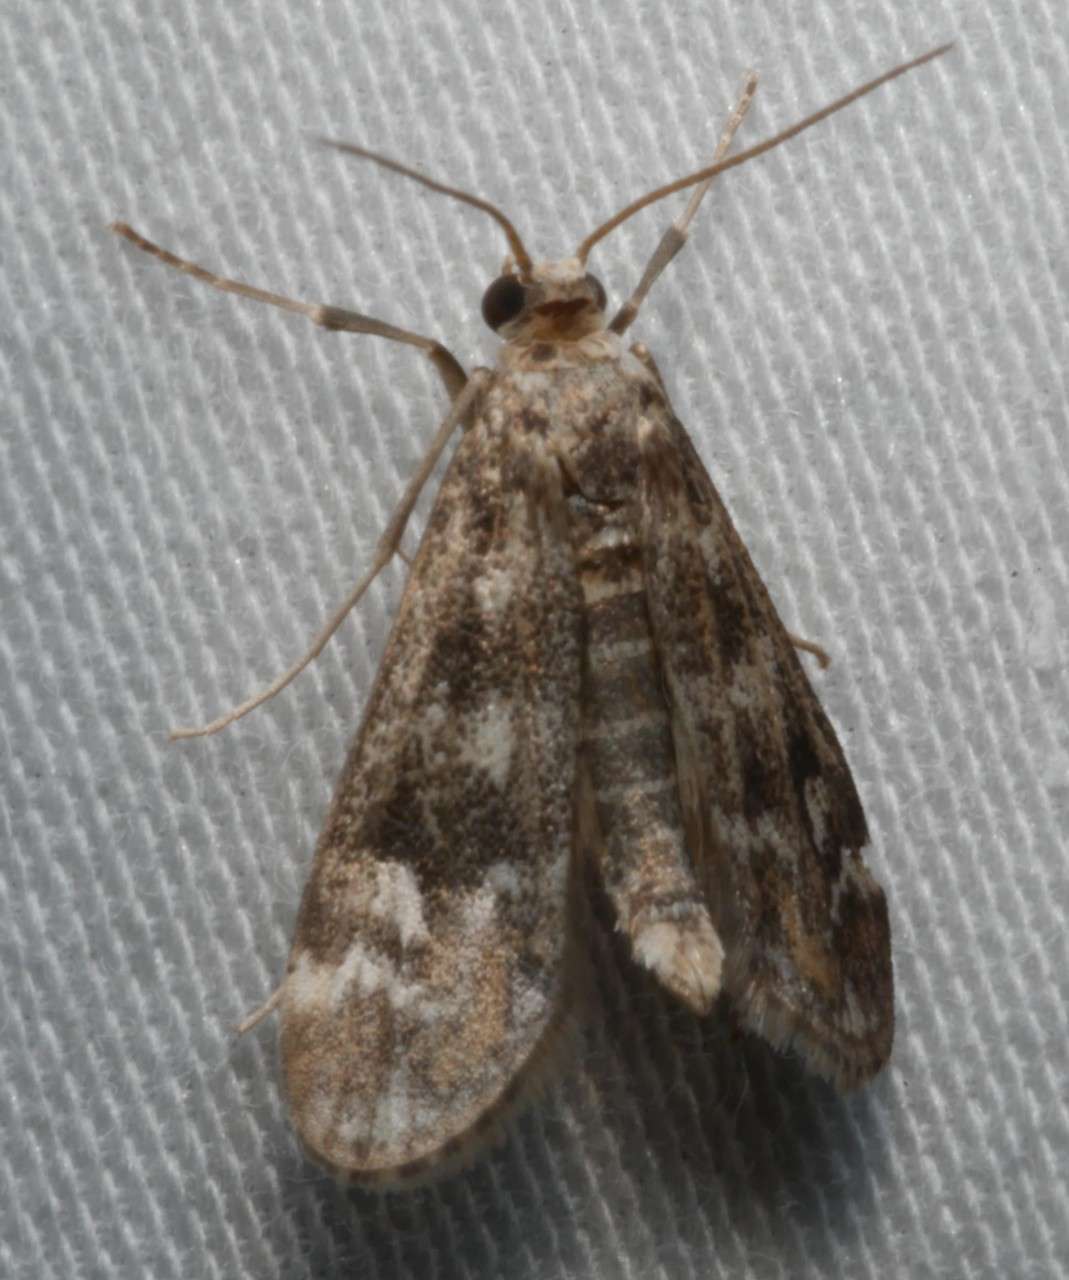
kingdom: Animalia
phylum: Arthropoda
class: Insecta
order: Lepidoptera
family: Crambidae
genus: Hygraula
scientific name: Hygraula nitens
